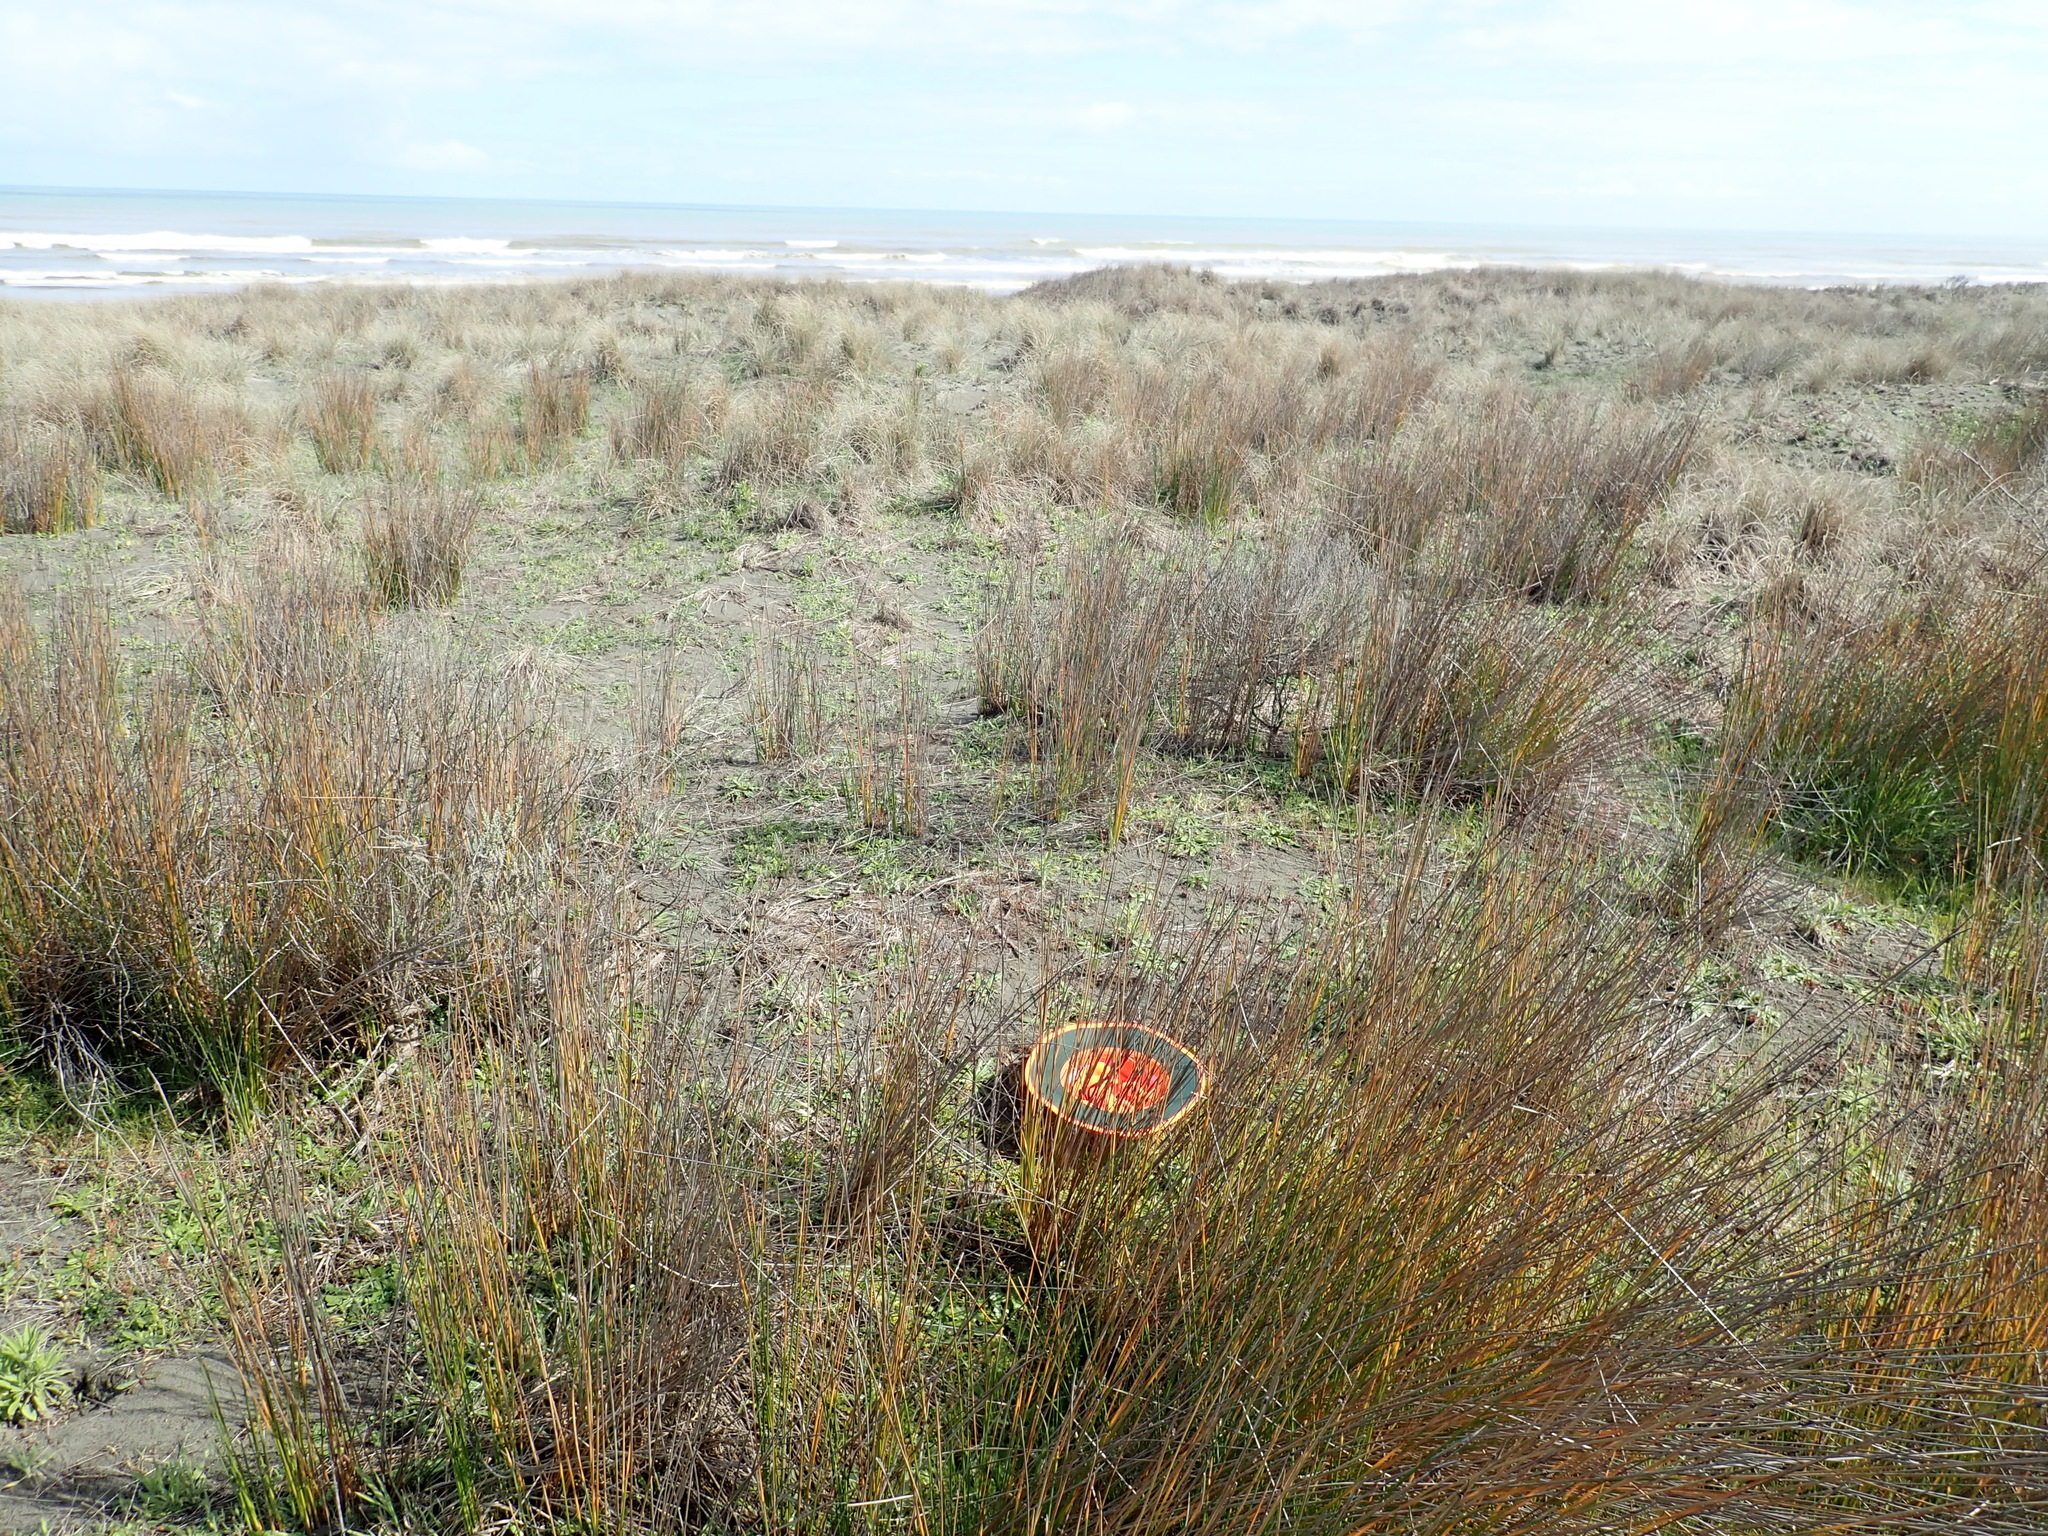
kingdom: Plantae
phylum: Tracheophyta
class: Magnoliopsida
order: Rosales
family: Rosaceae
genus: Acaena
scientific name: Acaena novae-zelandiae
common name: Pirri-pirri-bur
